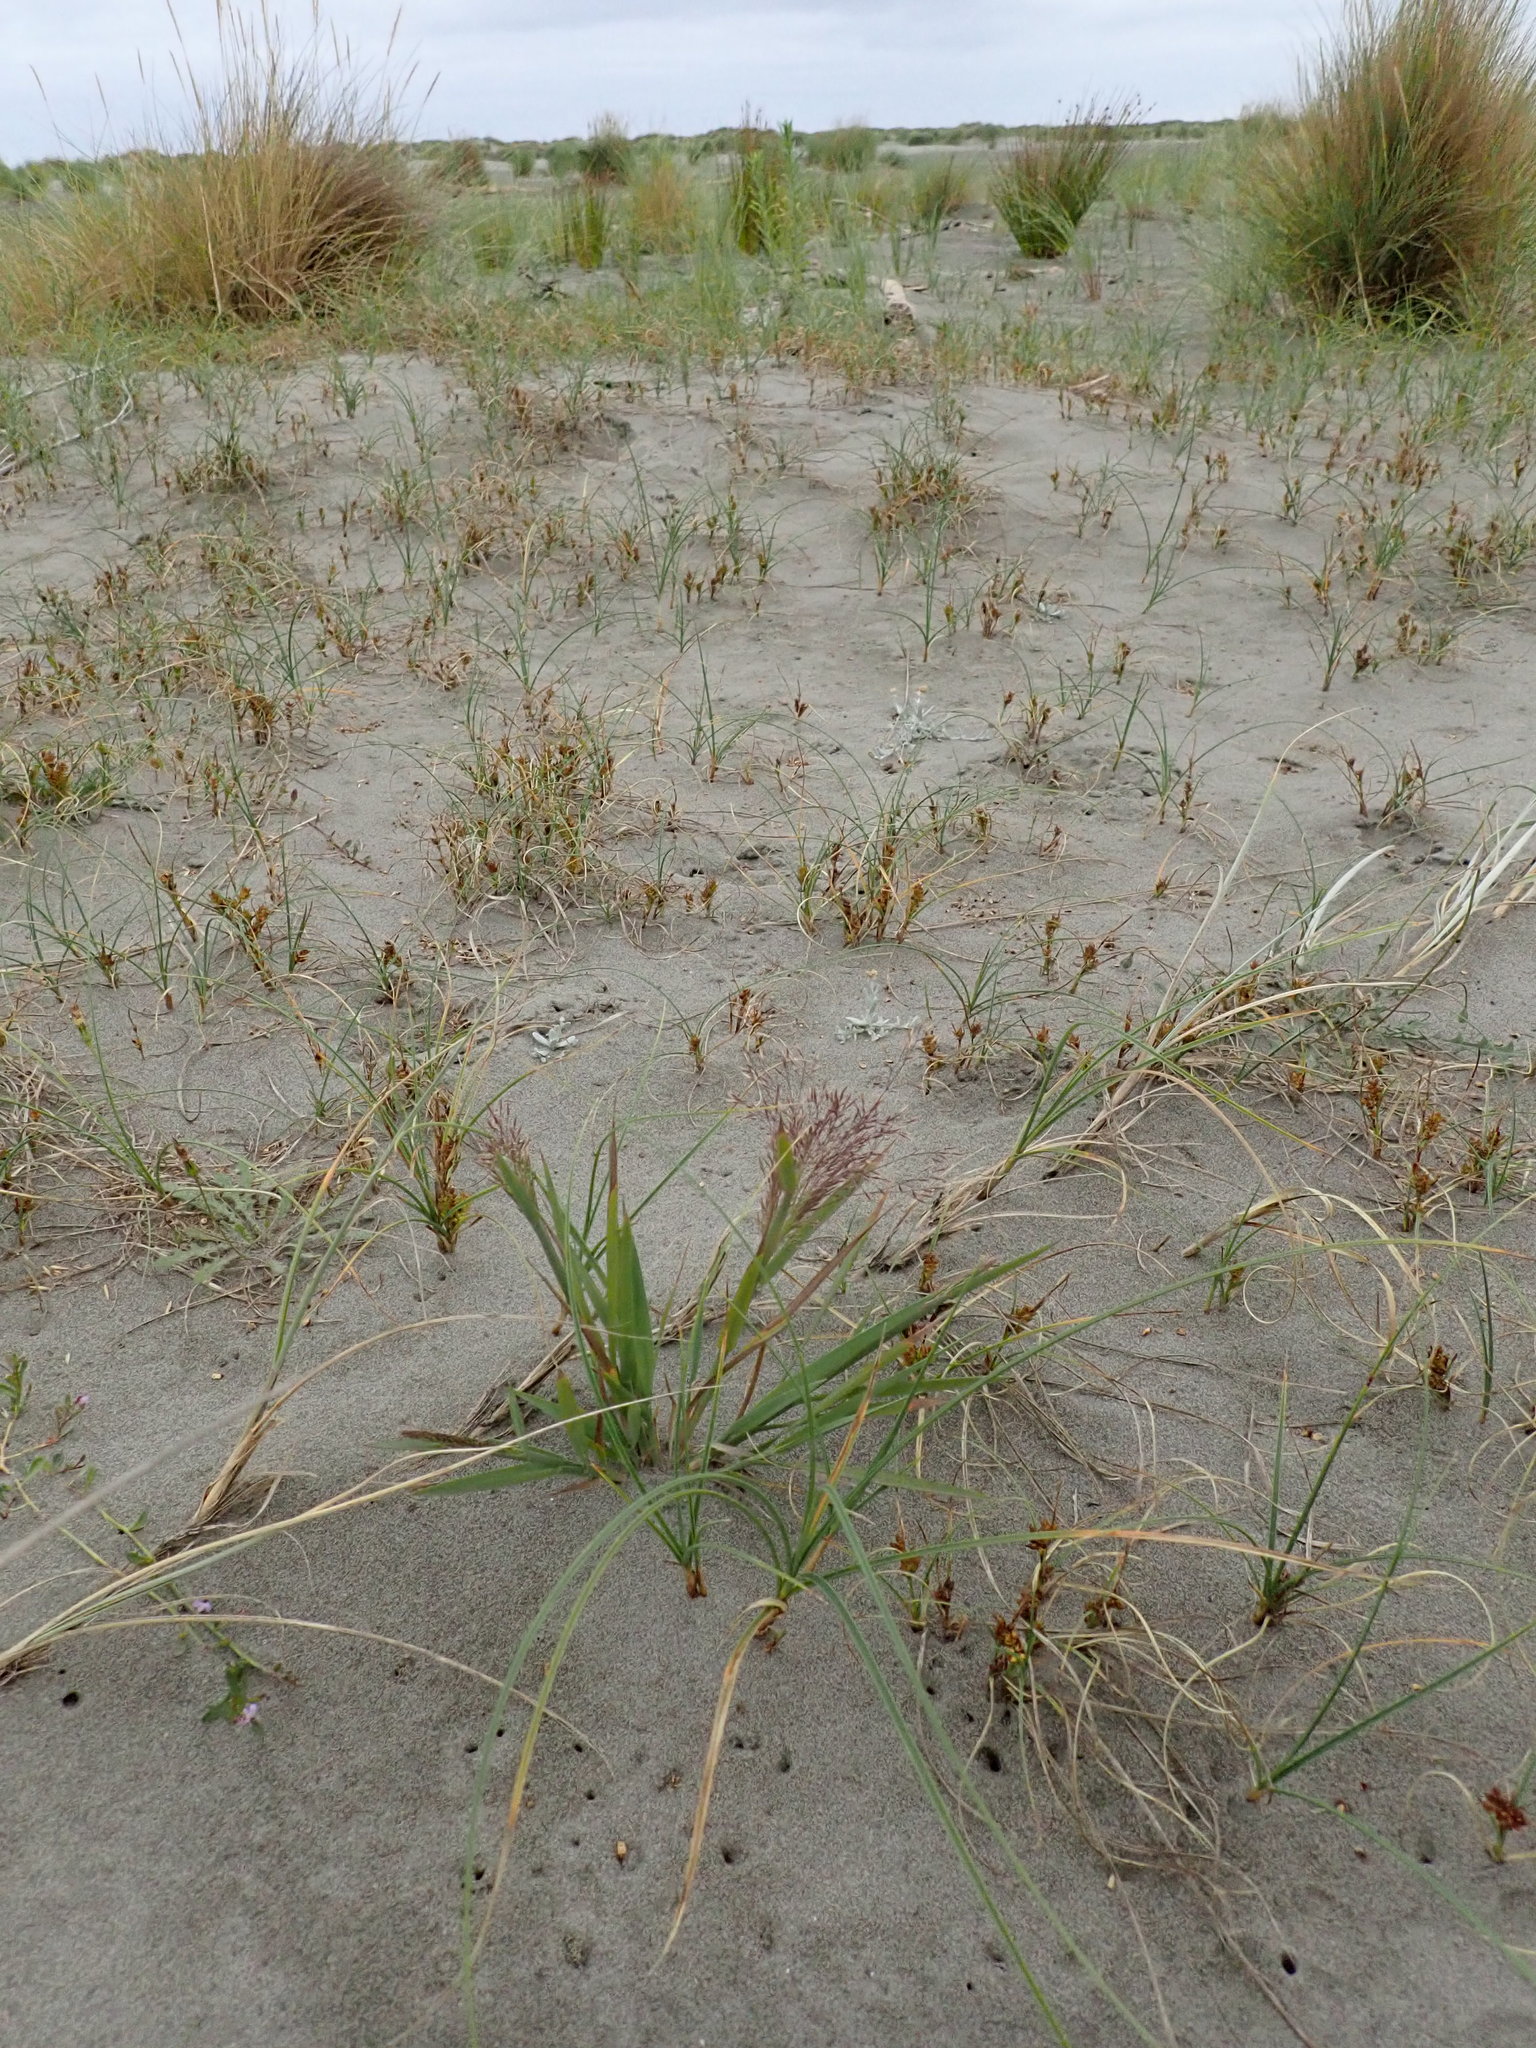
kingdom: Plantae
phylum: Tracheophyta
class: Liliopsida
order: Poales
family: Cyperaceae
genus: Carex
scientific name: Carex pumila
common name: Dwarf sedge
